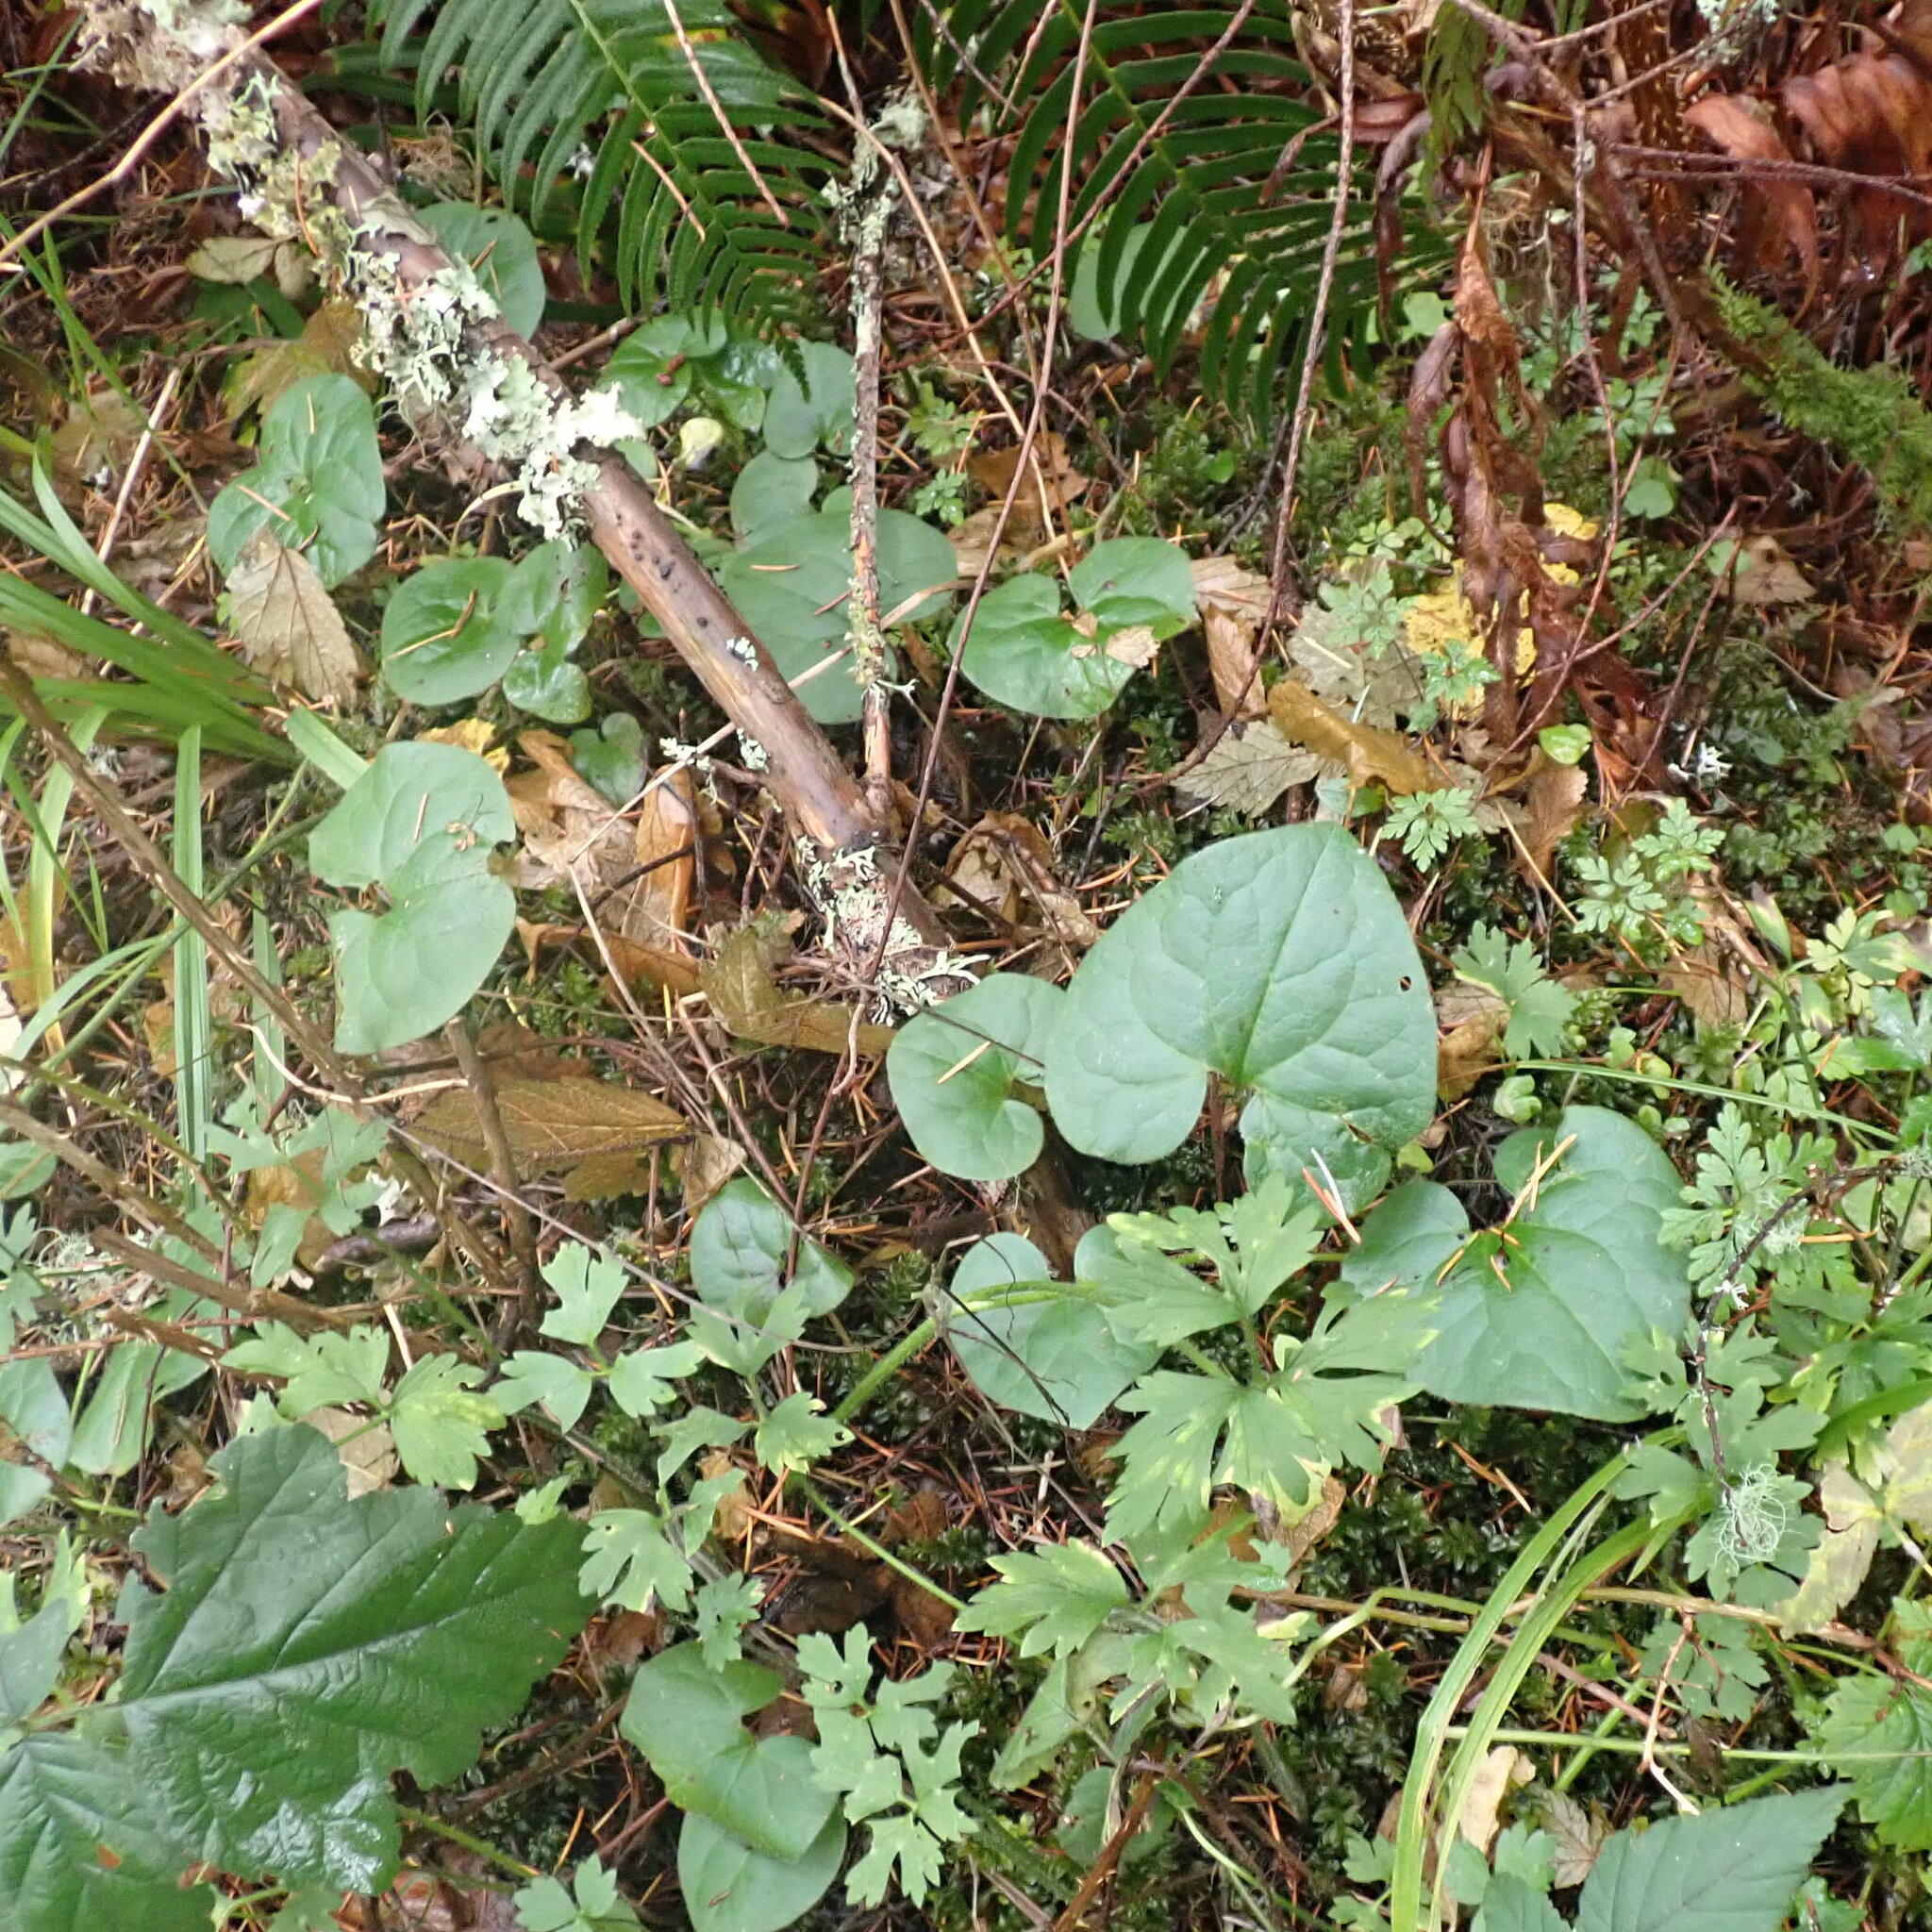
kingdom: Plantae
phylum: Tracheophyta
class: Magnoliopsida
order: Piperales
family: Aristolochiaceae
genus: Asarum
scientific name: Asarum caudatum
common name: Wild ginger
